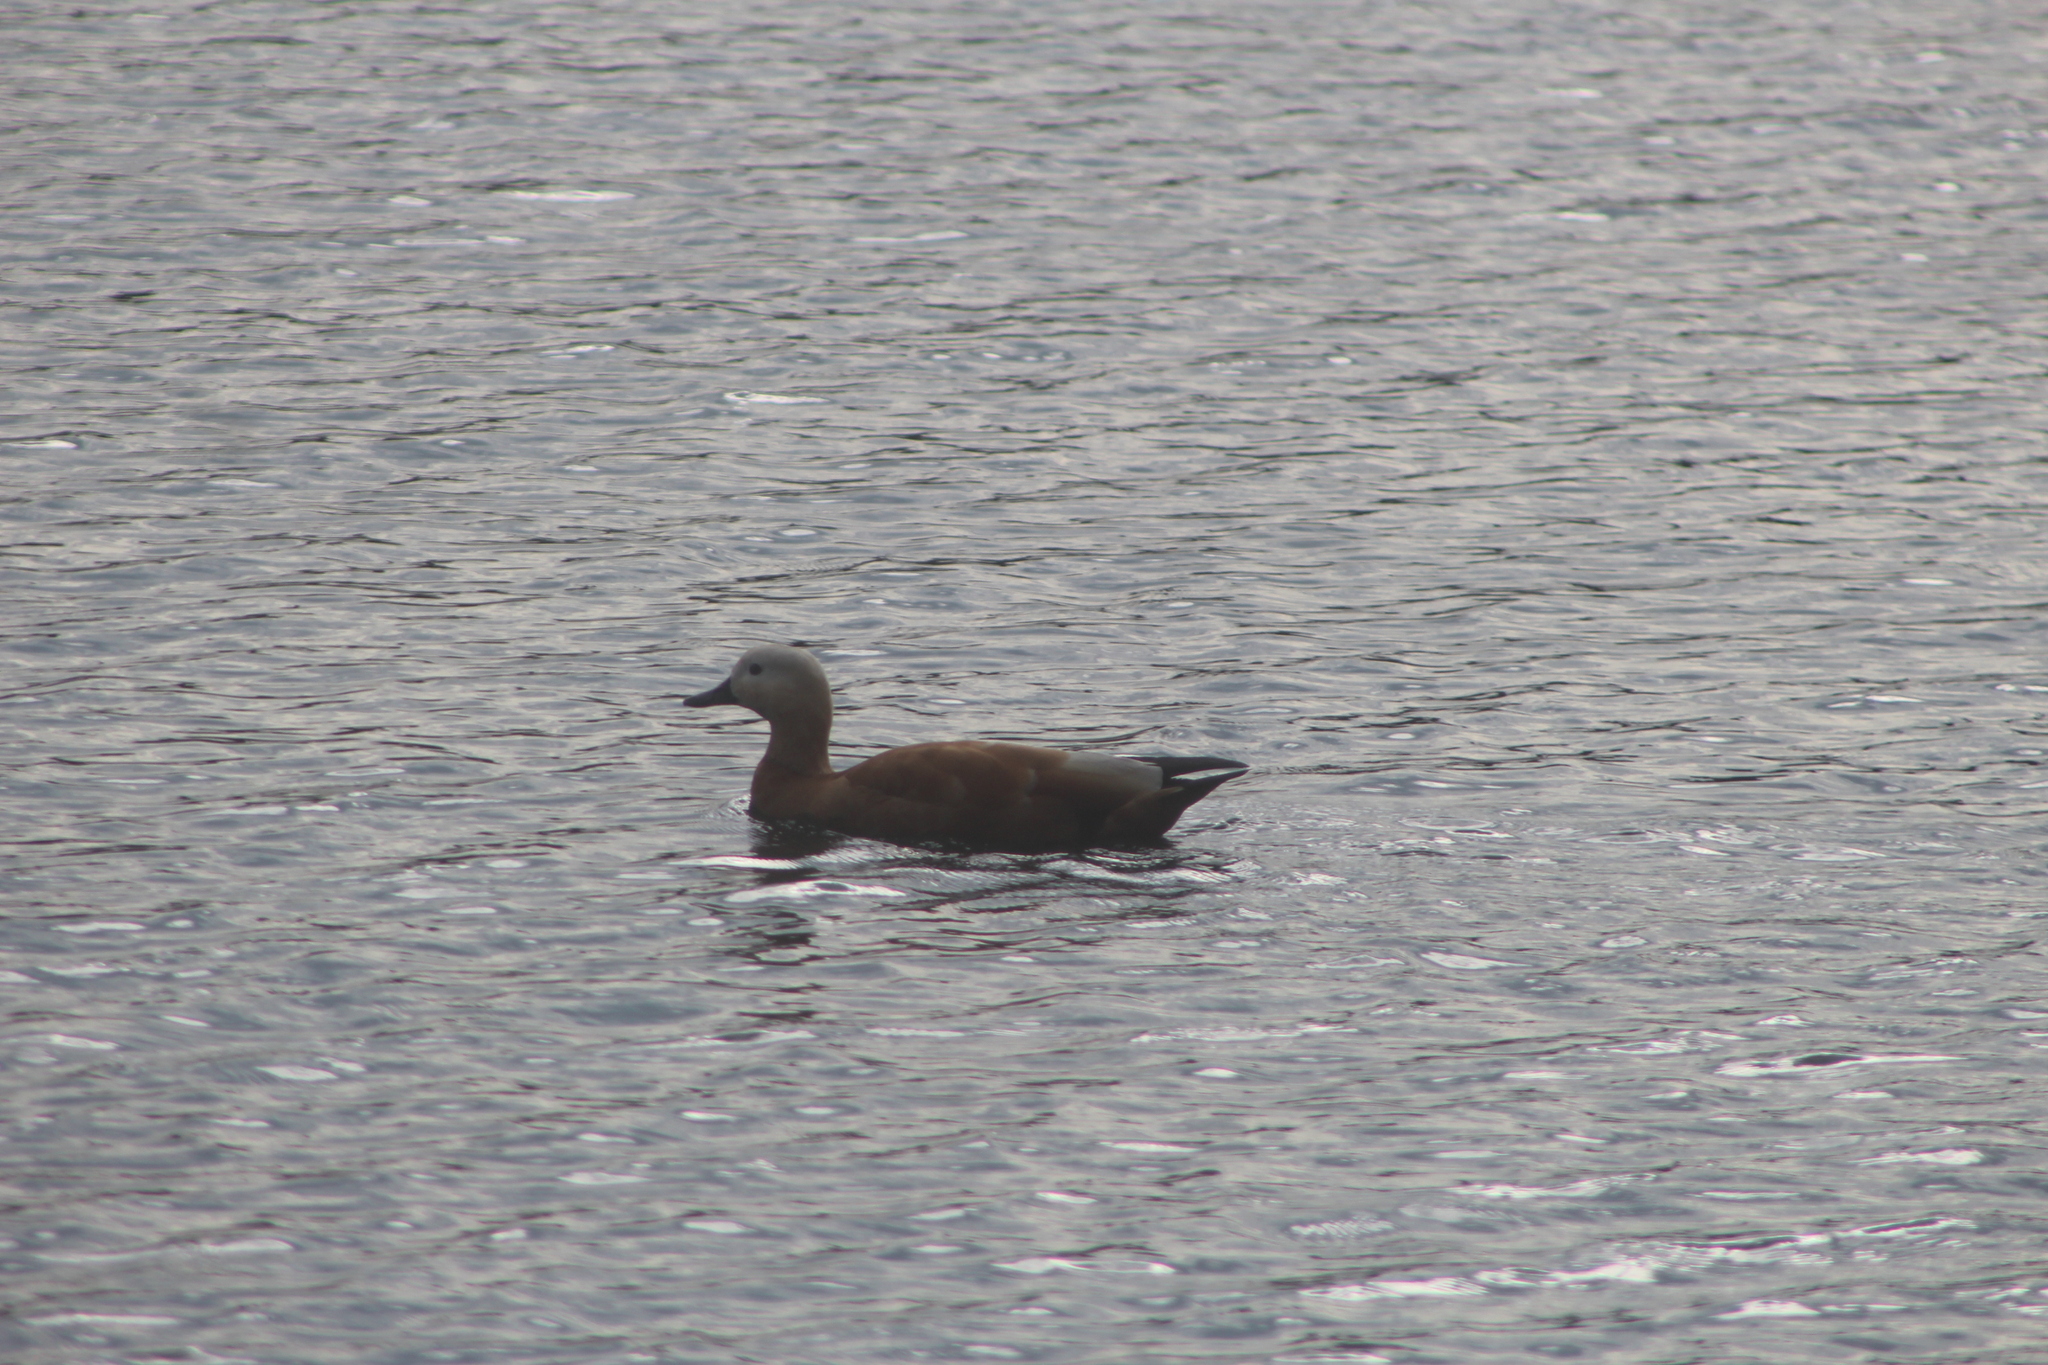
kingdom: Animalia
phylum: Chordata
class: Aves
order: Anseriformes
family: Anatidae
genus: Tadorna
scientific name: Tadorna ferruginea
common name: Ruddy shelduck
